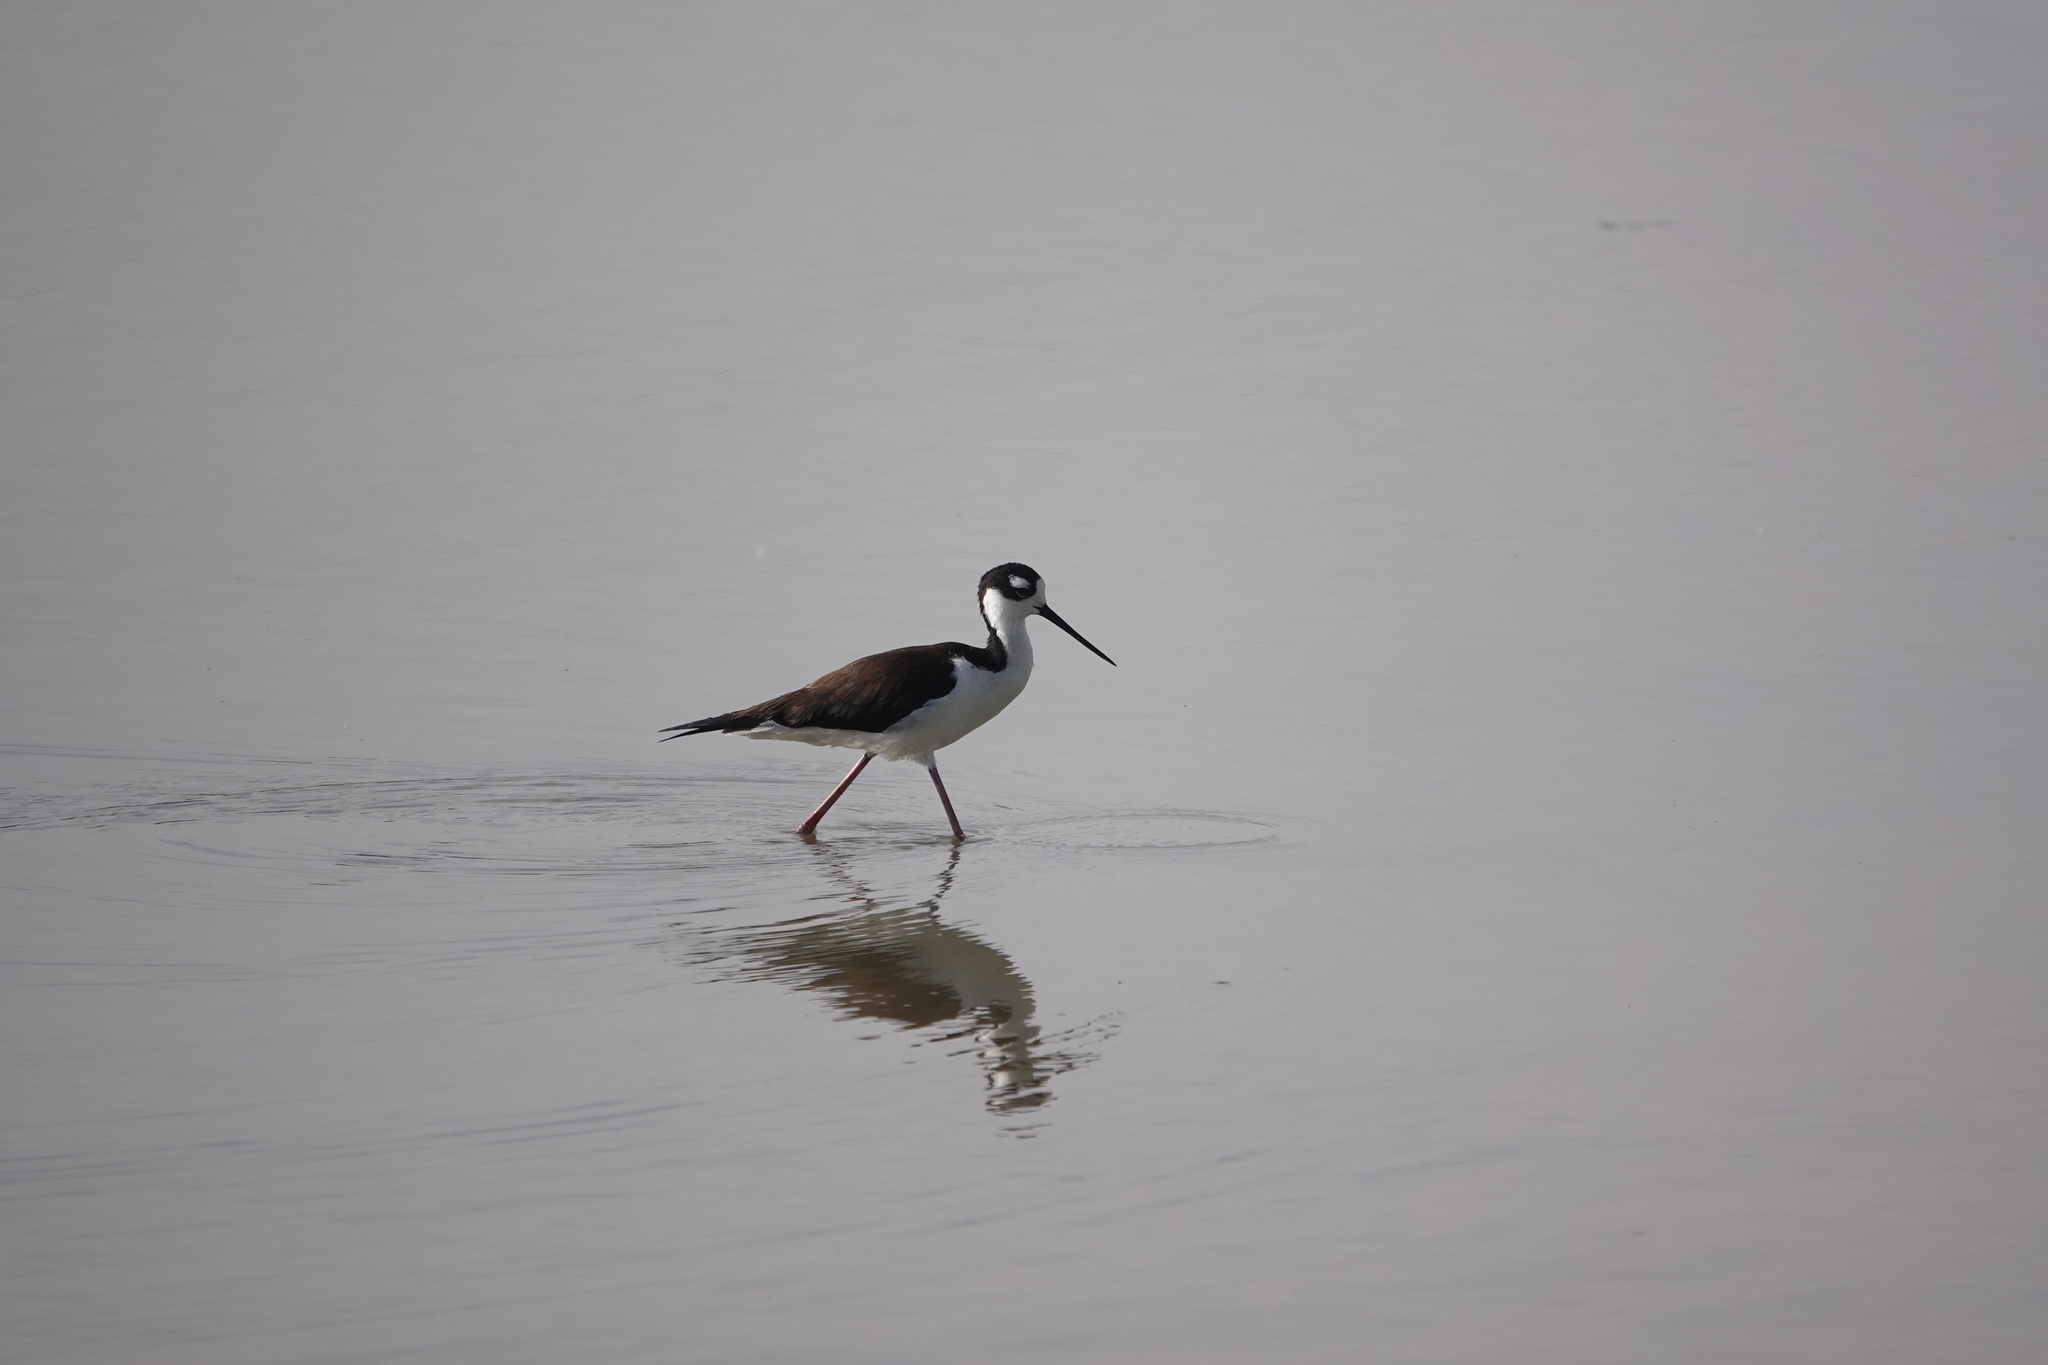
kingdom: Animalia
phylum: Chordata
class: Aves
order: Charadriiformes
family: Recurvirostridae
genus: Himantopus
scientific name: Himantopus mexicanus
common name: Black-necked stilt
